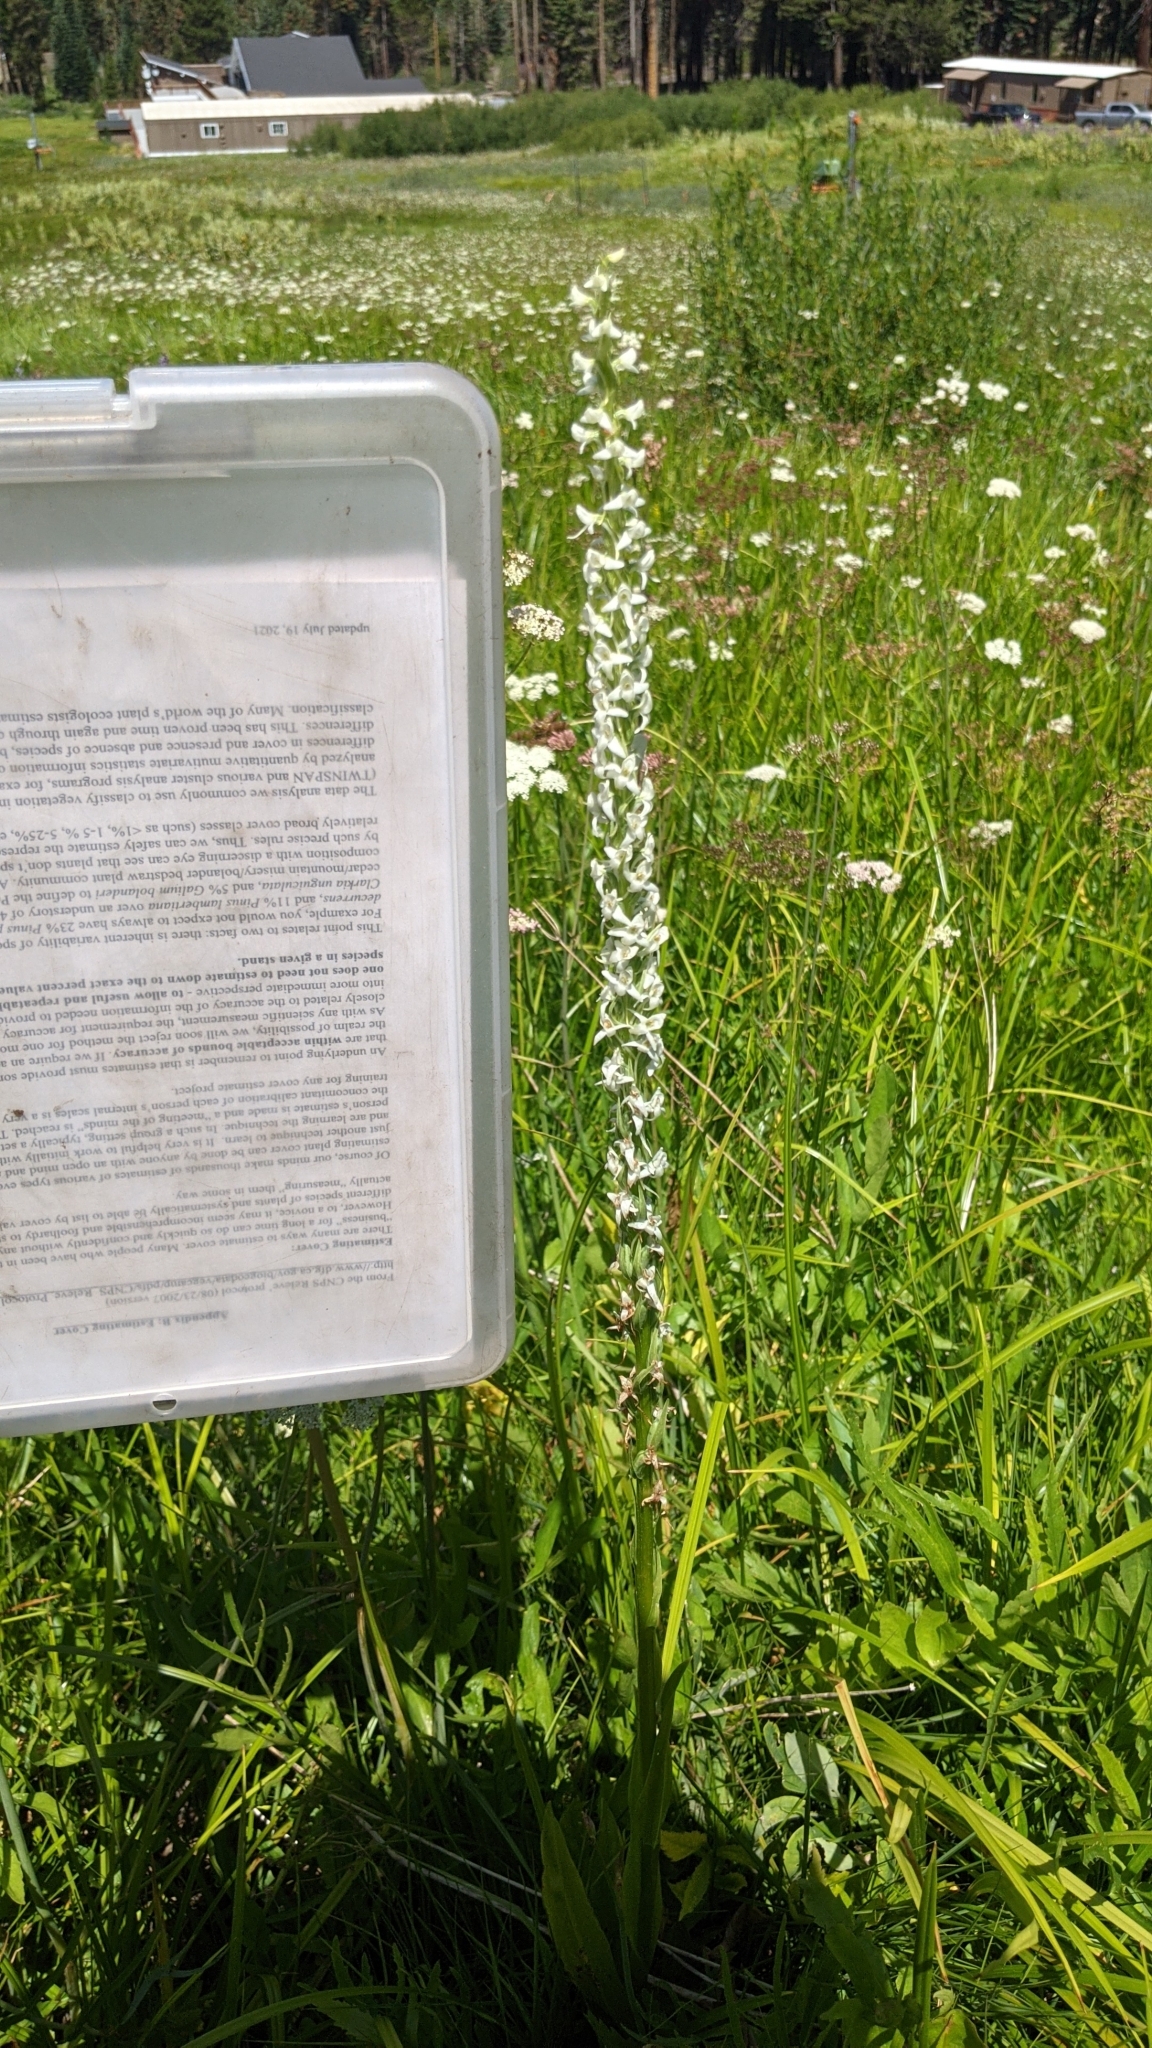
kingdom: Plantae
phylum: Tracheophyta
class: Liliopsida
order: Asparagales
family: Orchidaceae
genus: Platanthera
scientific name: Platanthera dilatata
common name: Bog candles
